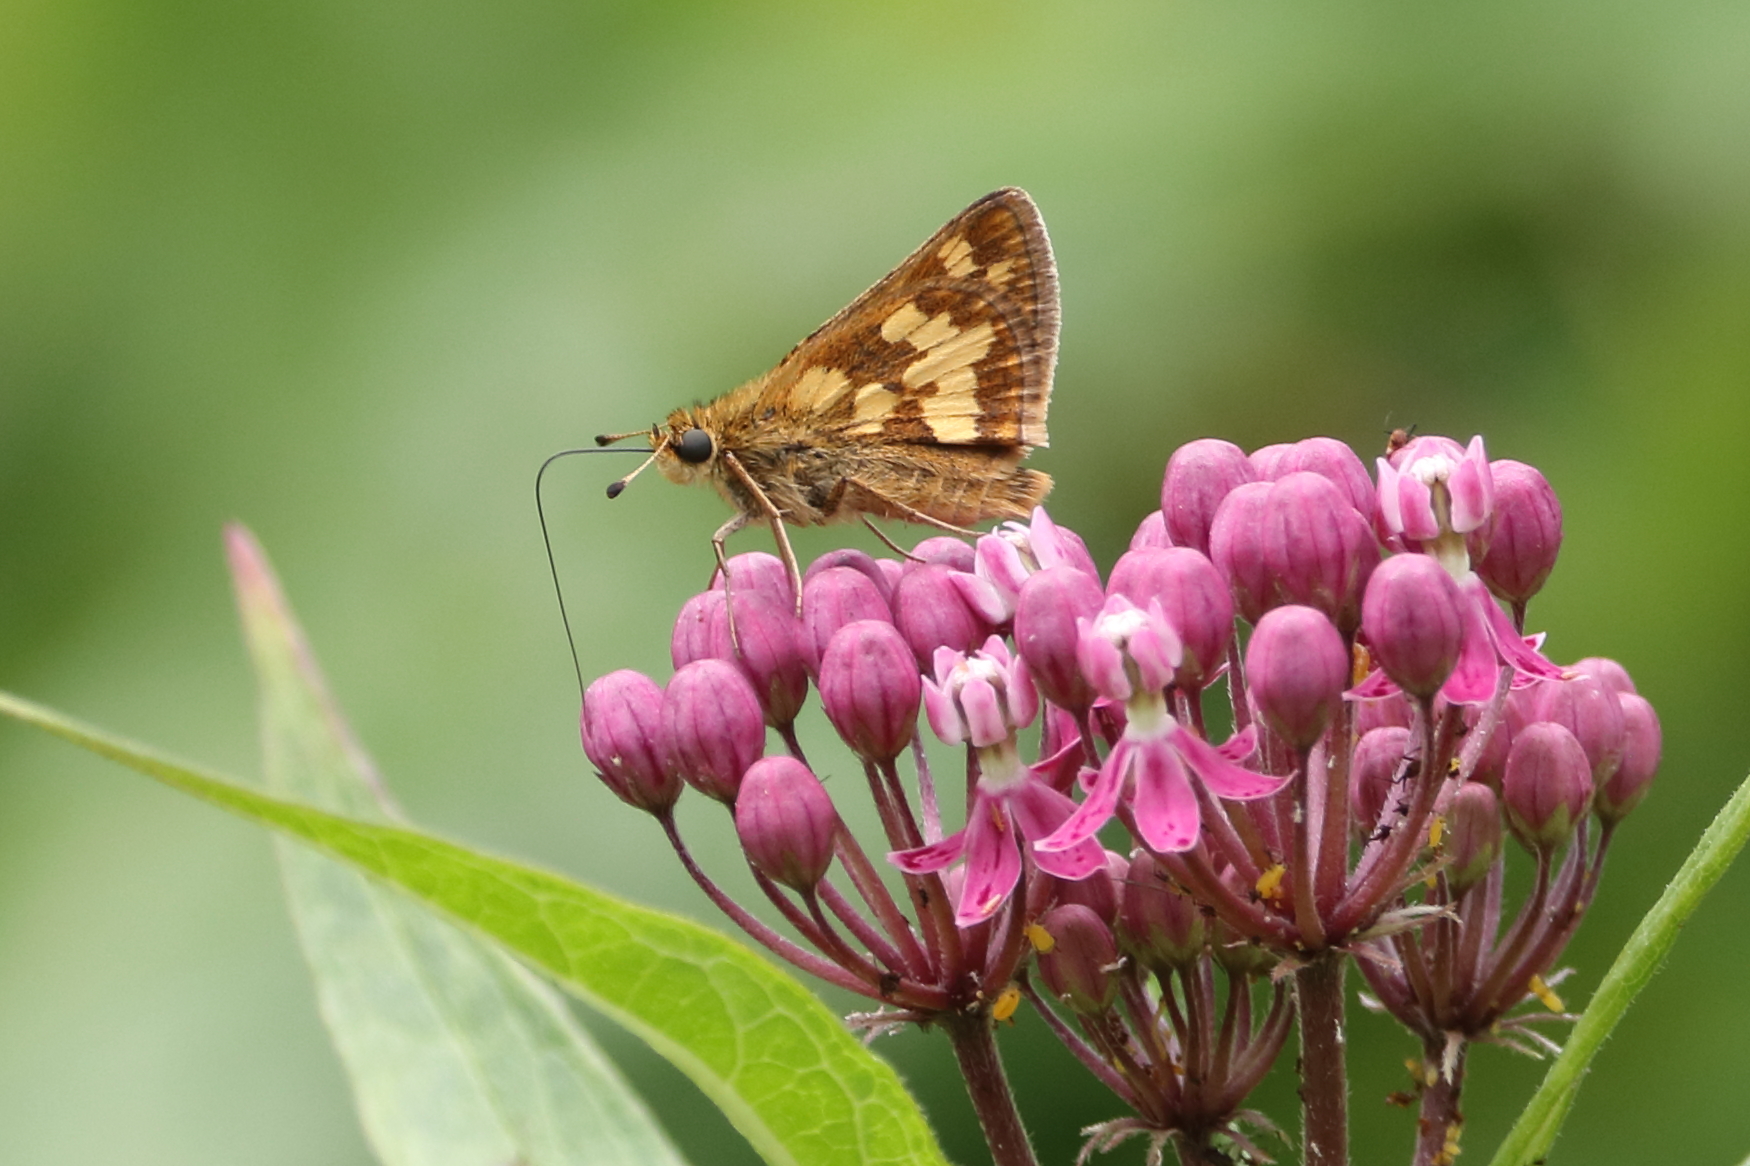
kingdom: Animalia
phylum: Arthropoda
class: Insecta
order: Lepidoptera
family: Hesperiidae
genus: Polites
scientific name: Polites coras
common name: Peck's skipper
